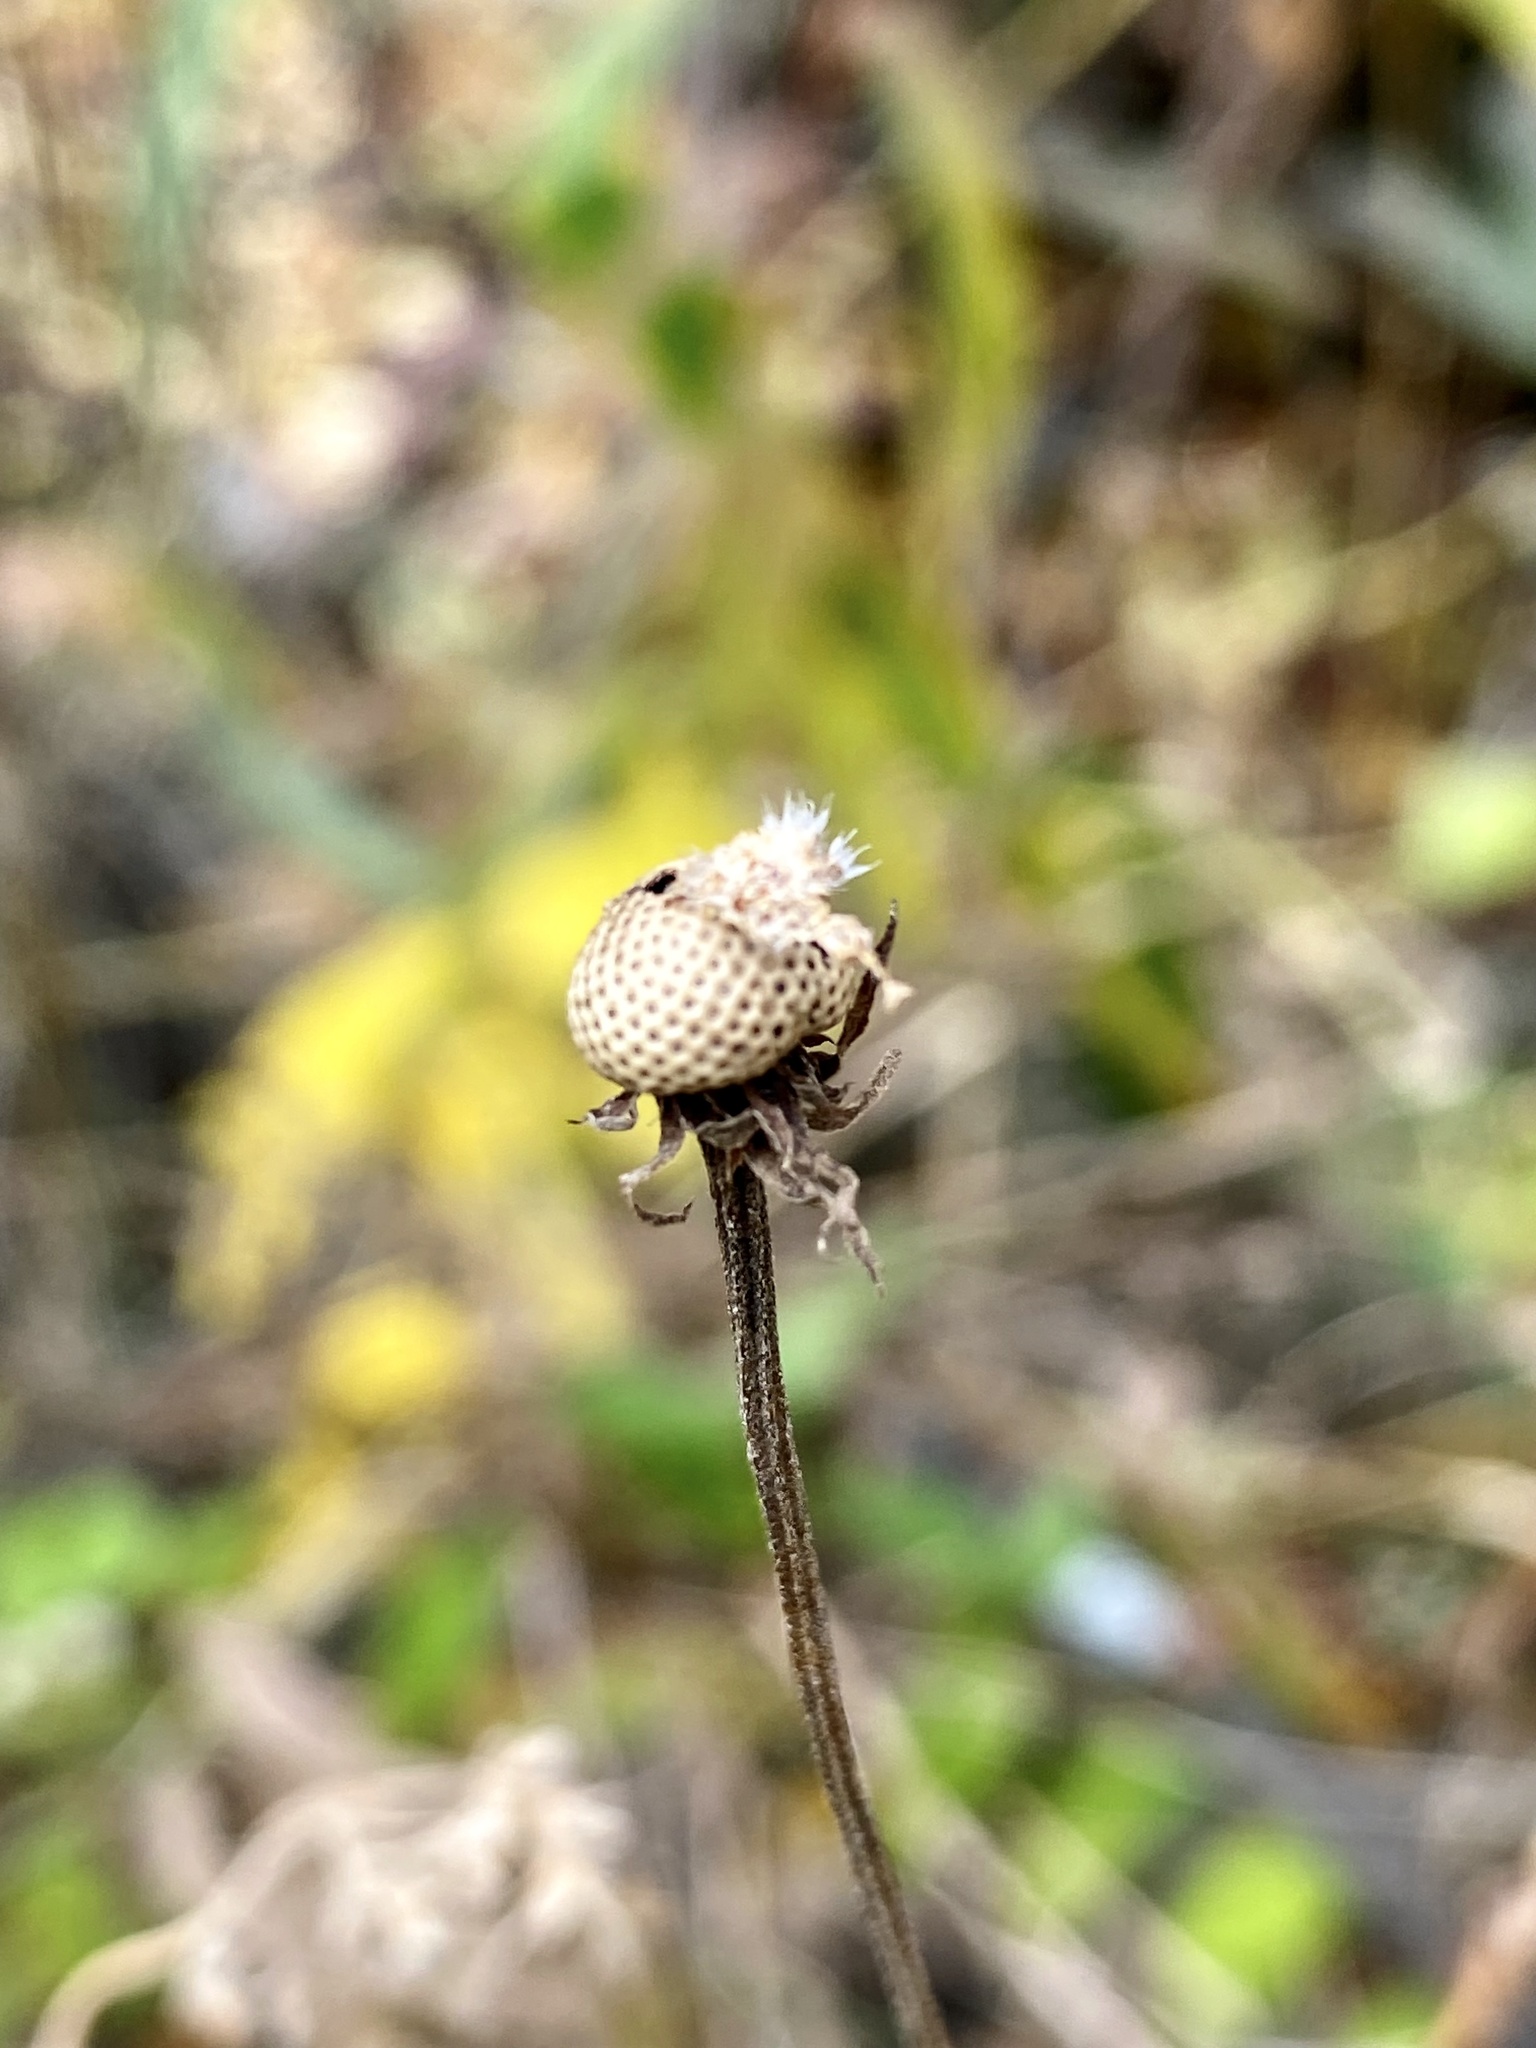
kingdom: Plantae
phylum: Tracheophyta
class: Magnoliopsida
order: Asterales
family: Asteraceae
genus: Helenium
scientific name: Helenium autumnale
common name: Sneezeweed
